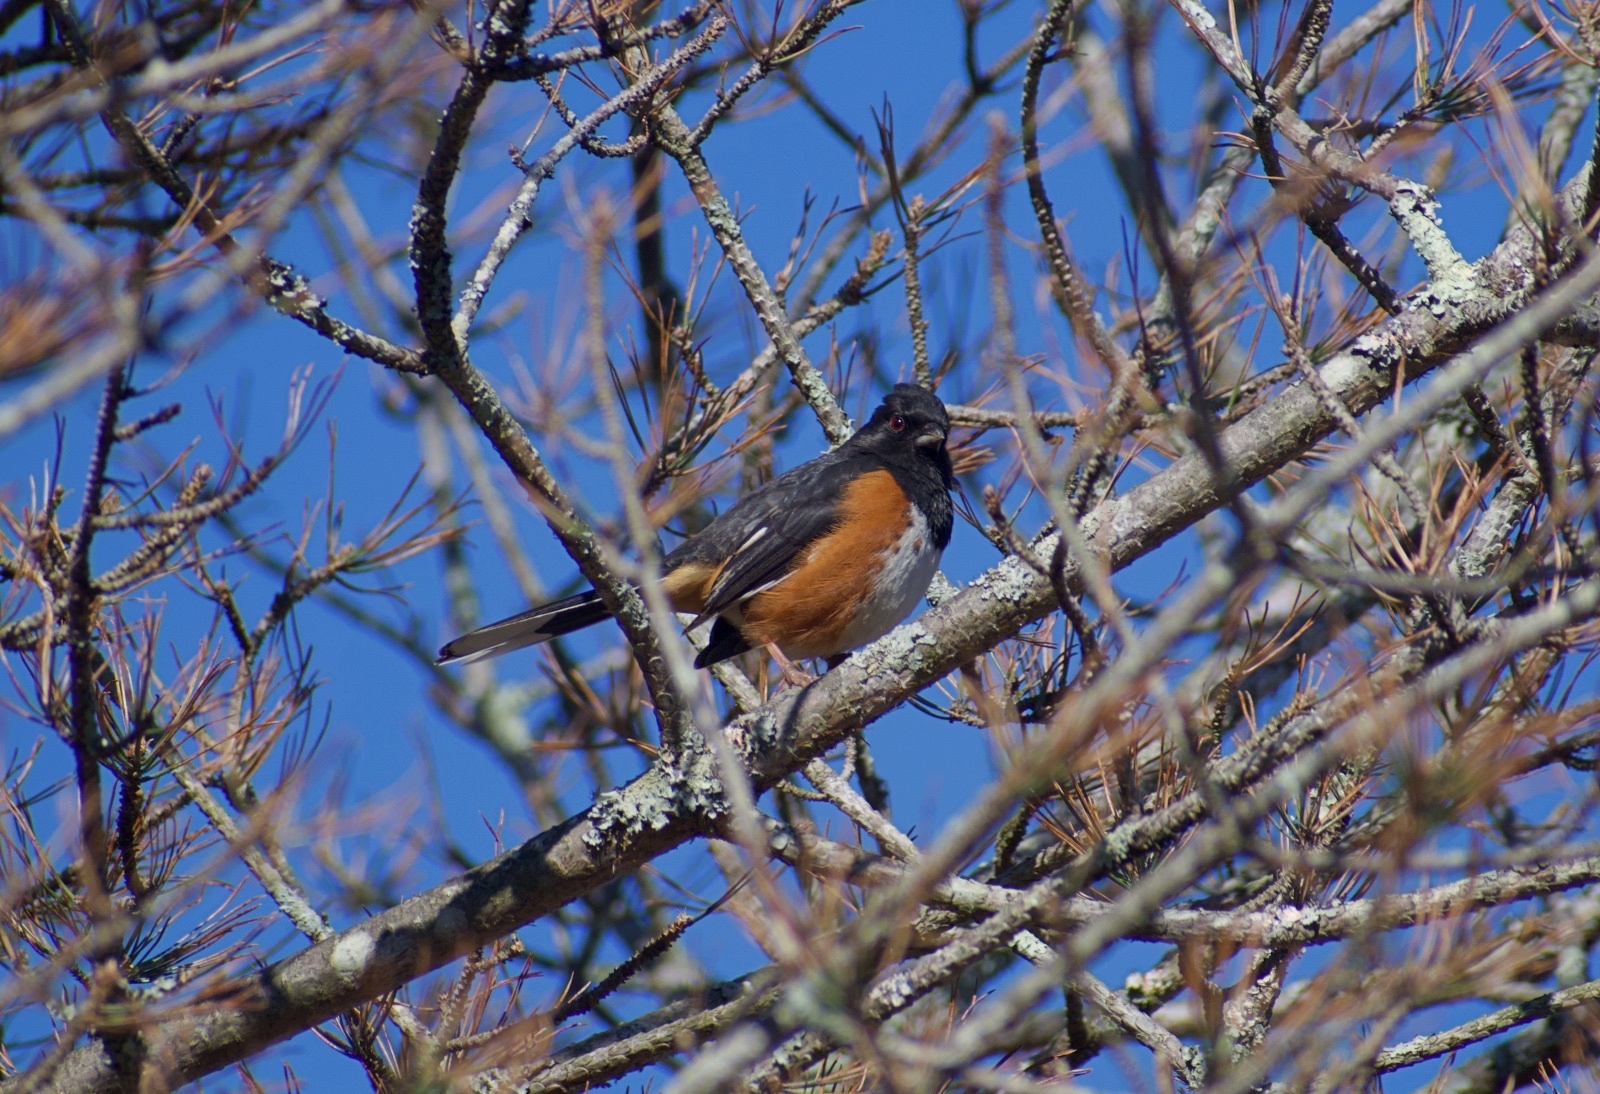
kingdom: Animalia
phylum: Chordata
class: Aves
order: Passeriformes
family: Passerellidae
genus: Pipilo
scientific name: Pipilo erythrophthalmus
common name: Eastern towhee
